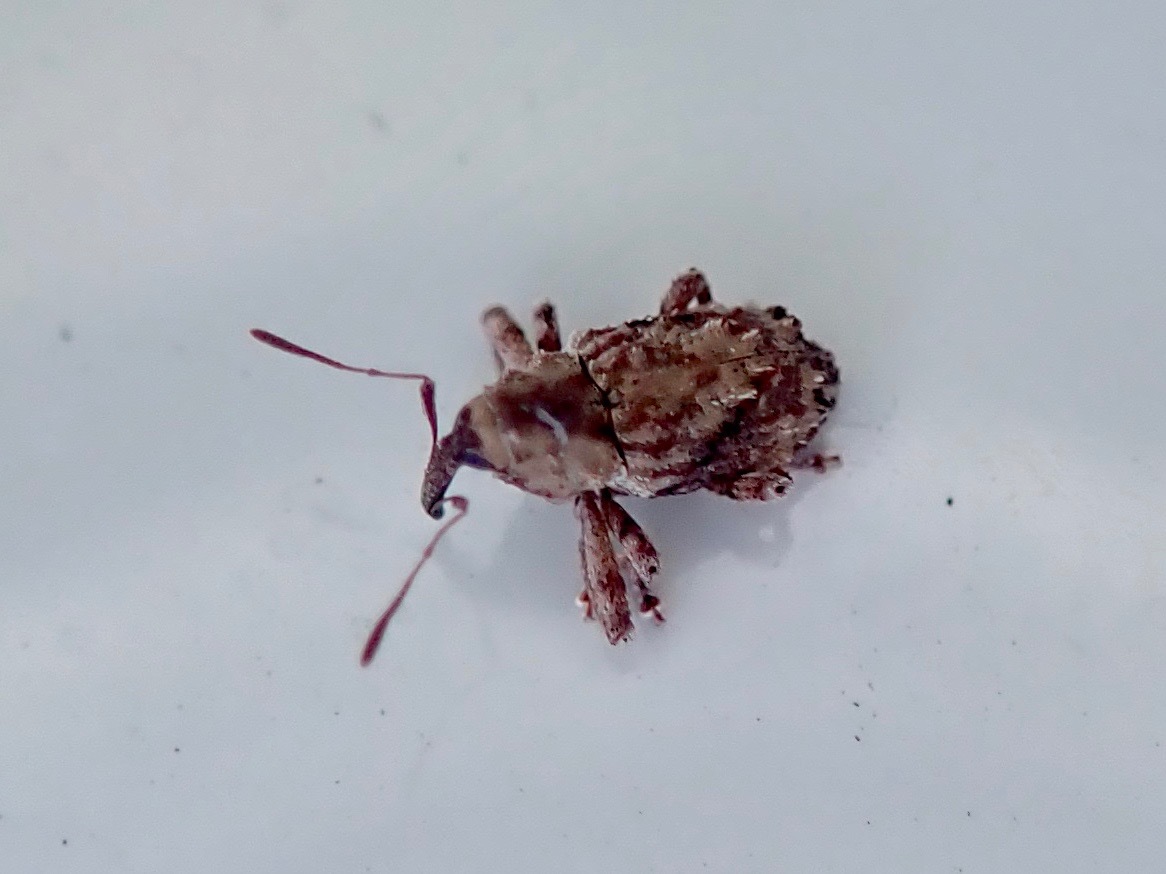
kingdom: Animalia
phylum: Arthropoda
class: Insecta
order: Coleoptera
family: Curculionidae
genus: Mecistostylus
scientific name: Mecistostylus douei
